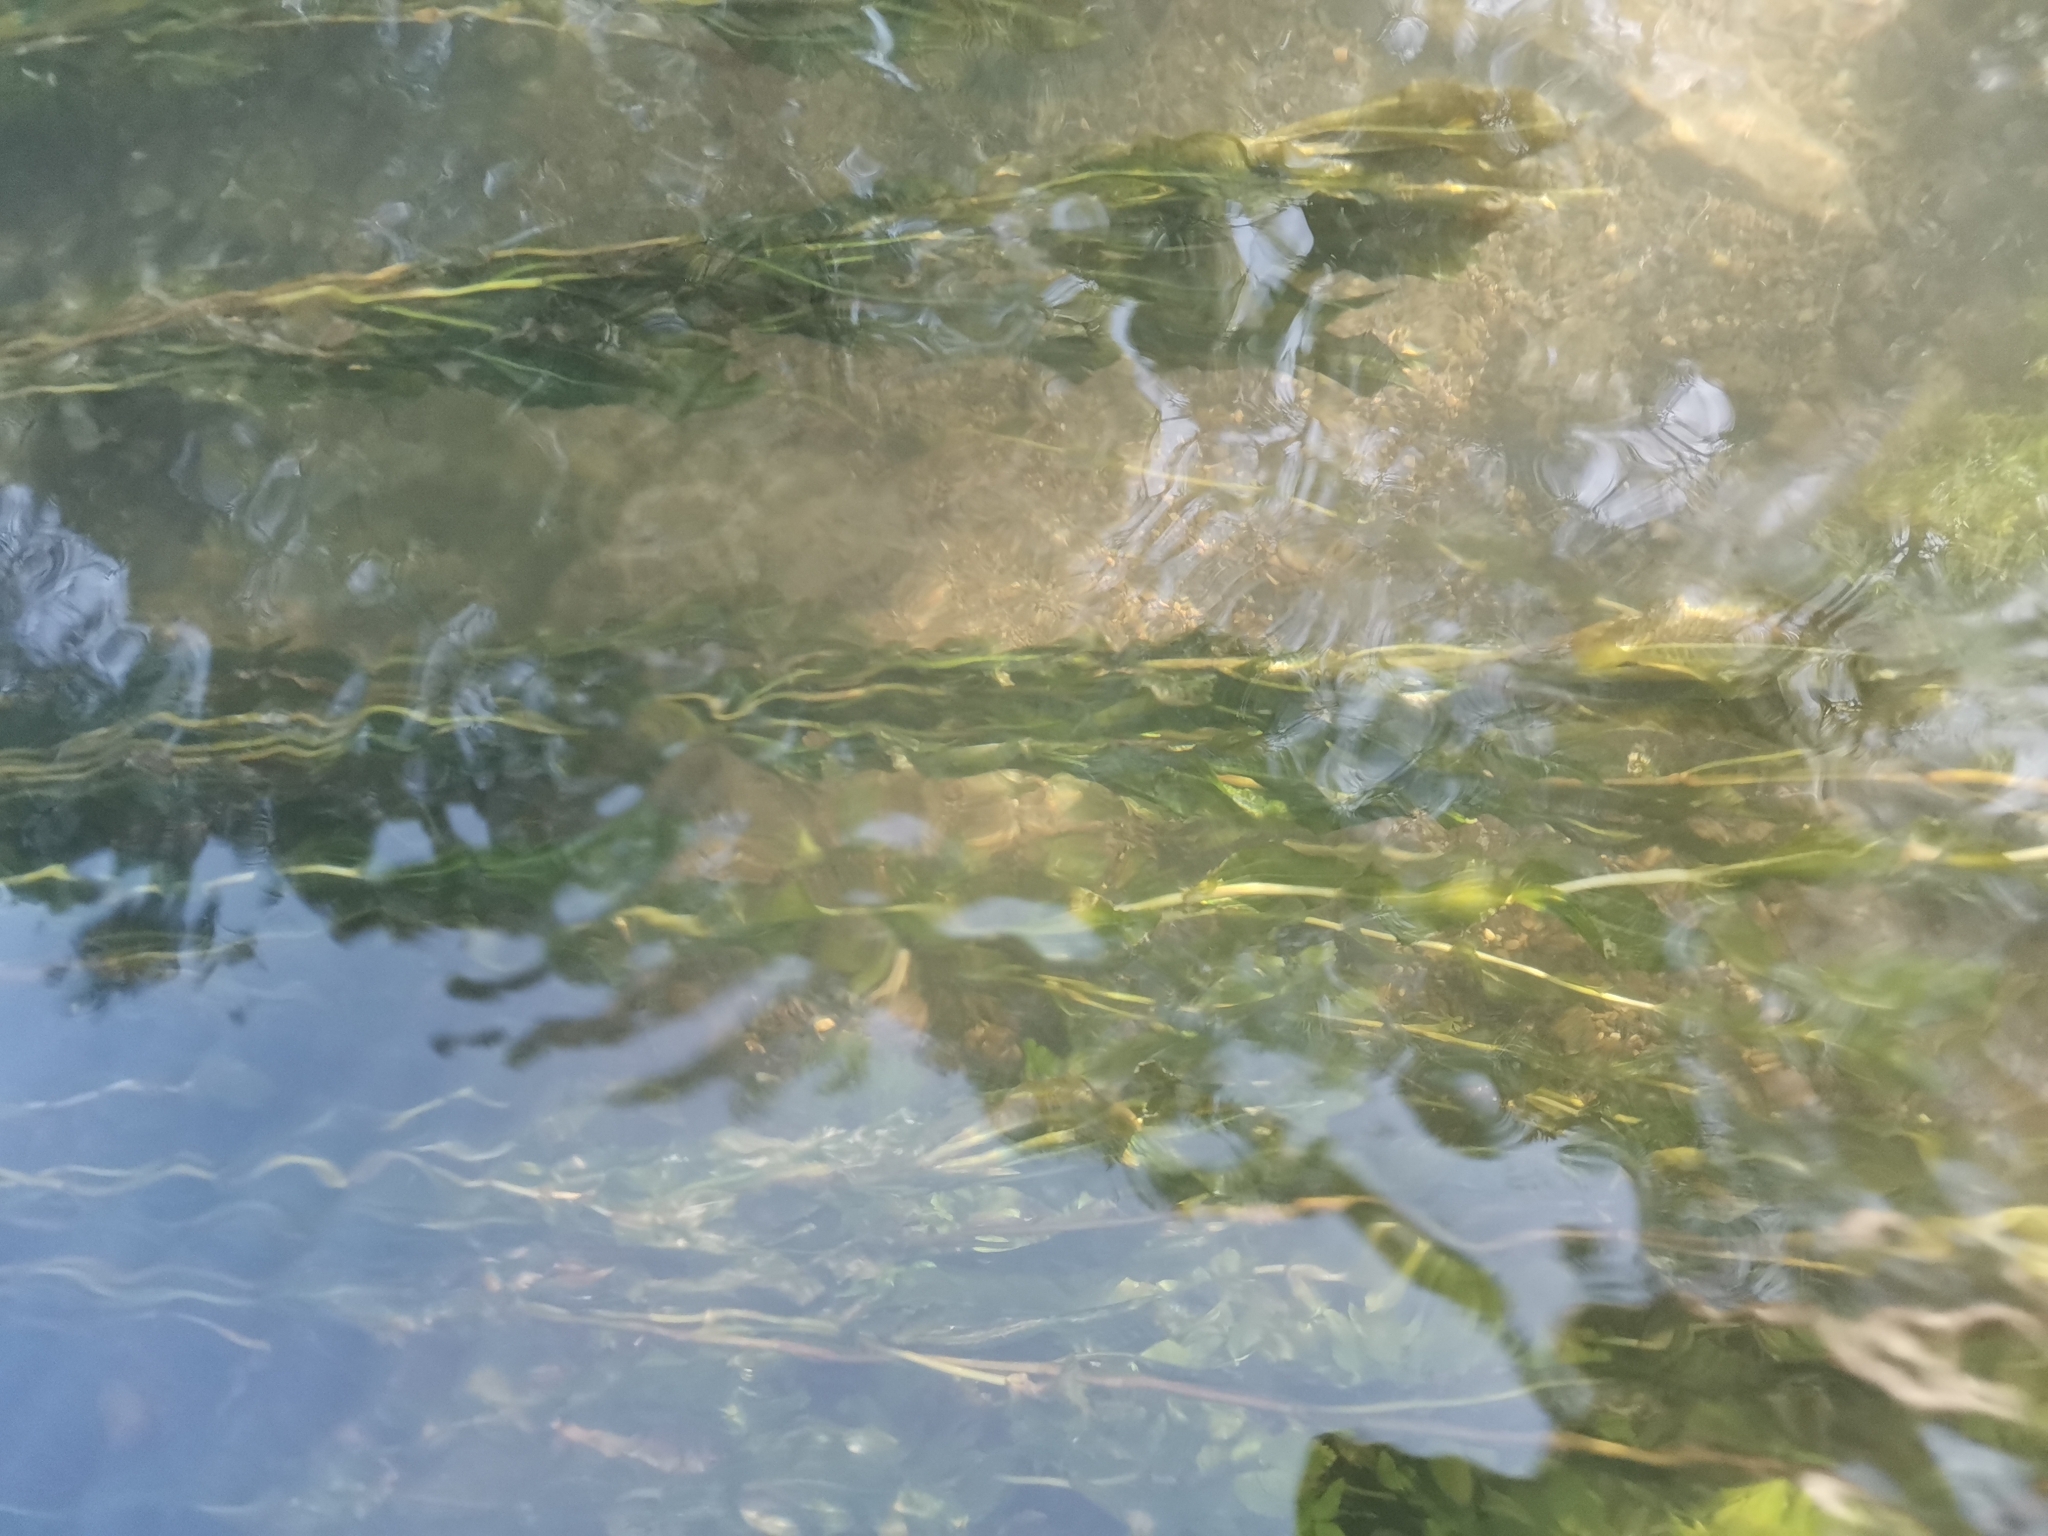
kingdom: Plantae
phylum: Tracheophyta
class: Liliopsida
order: Alismatales
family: Potamogetonaceae
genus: Potamogeton
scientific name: Potamogeton lucens
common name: Shining pondweed
